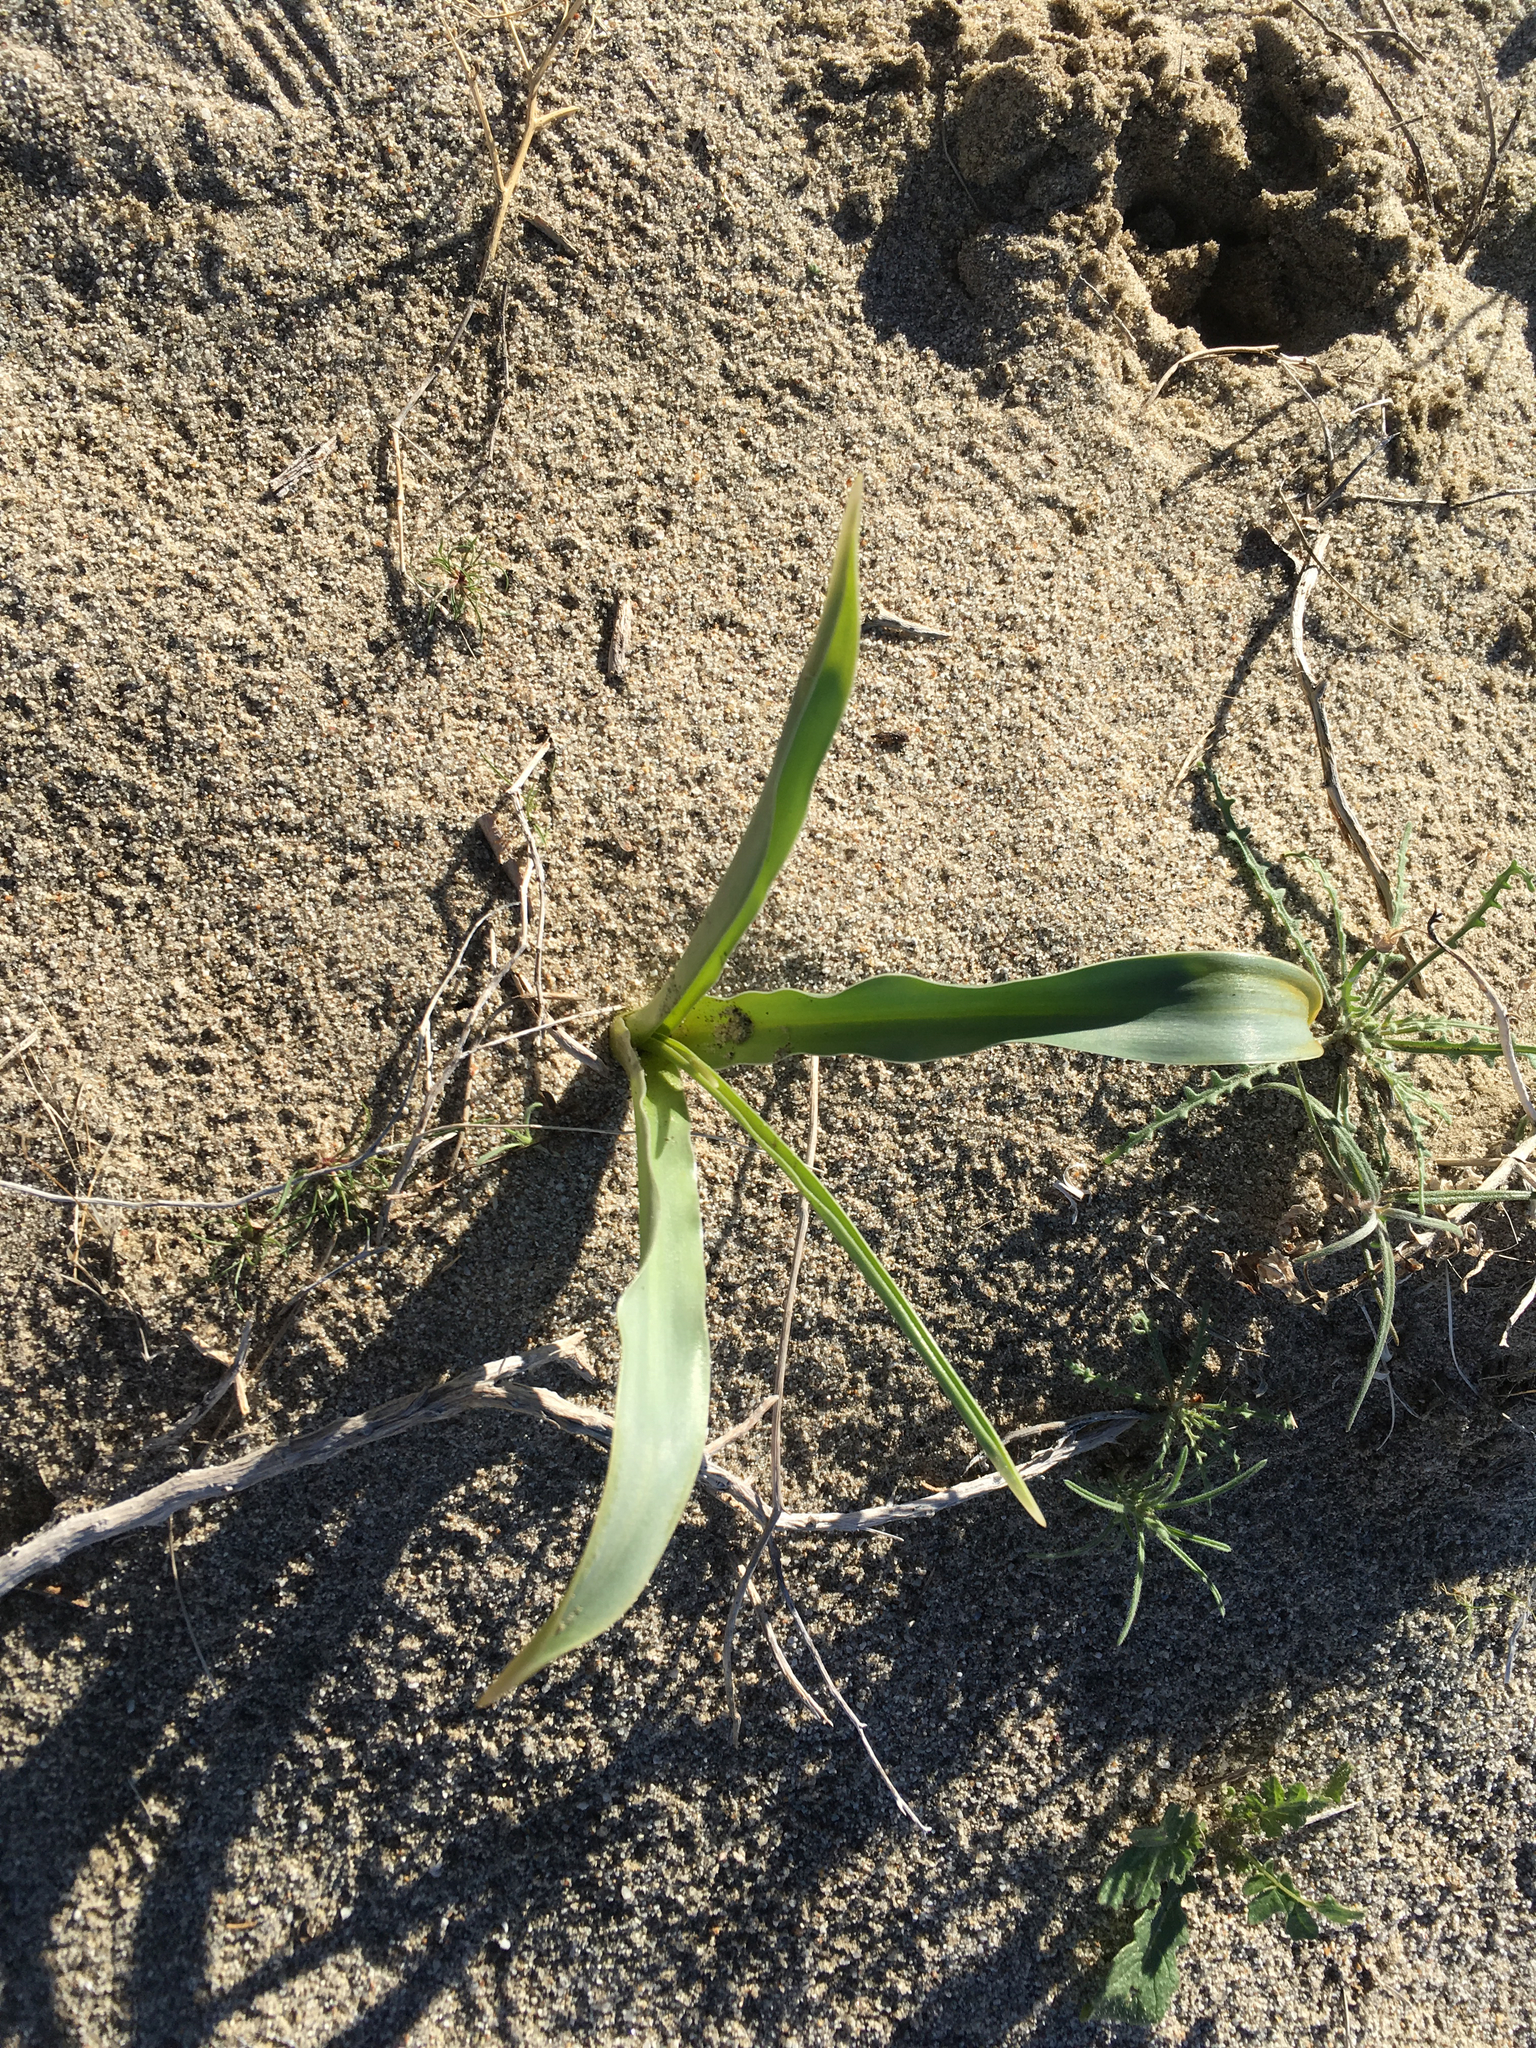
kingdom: Plantae
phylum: Tracheophyta
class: Liliopsida
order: Asparagales
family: Asparagaceae
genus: Hesperocallis
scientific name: Hesperocallis undulata
